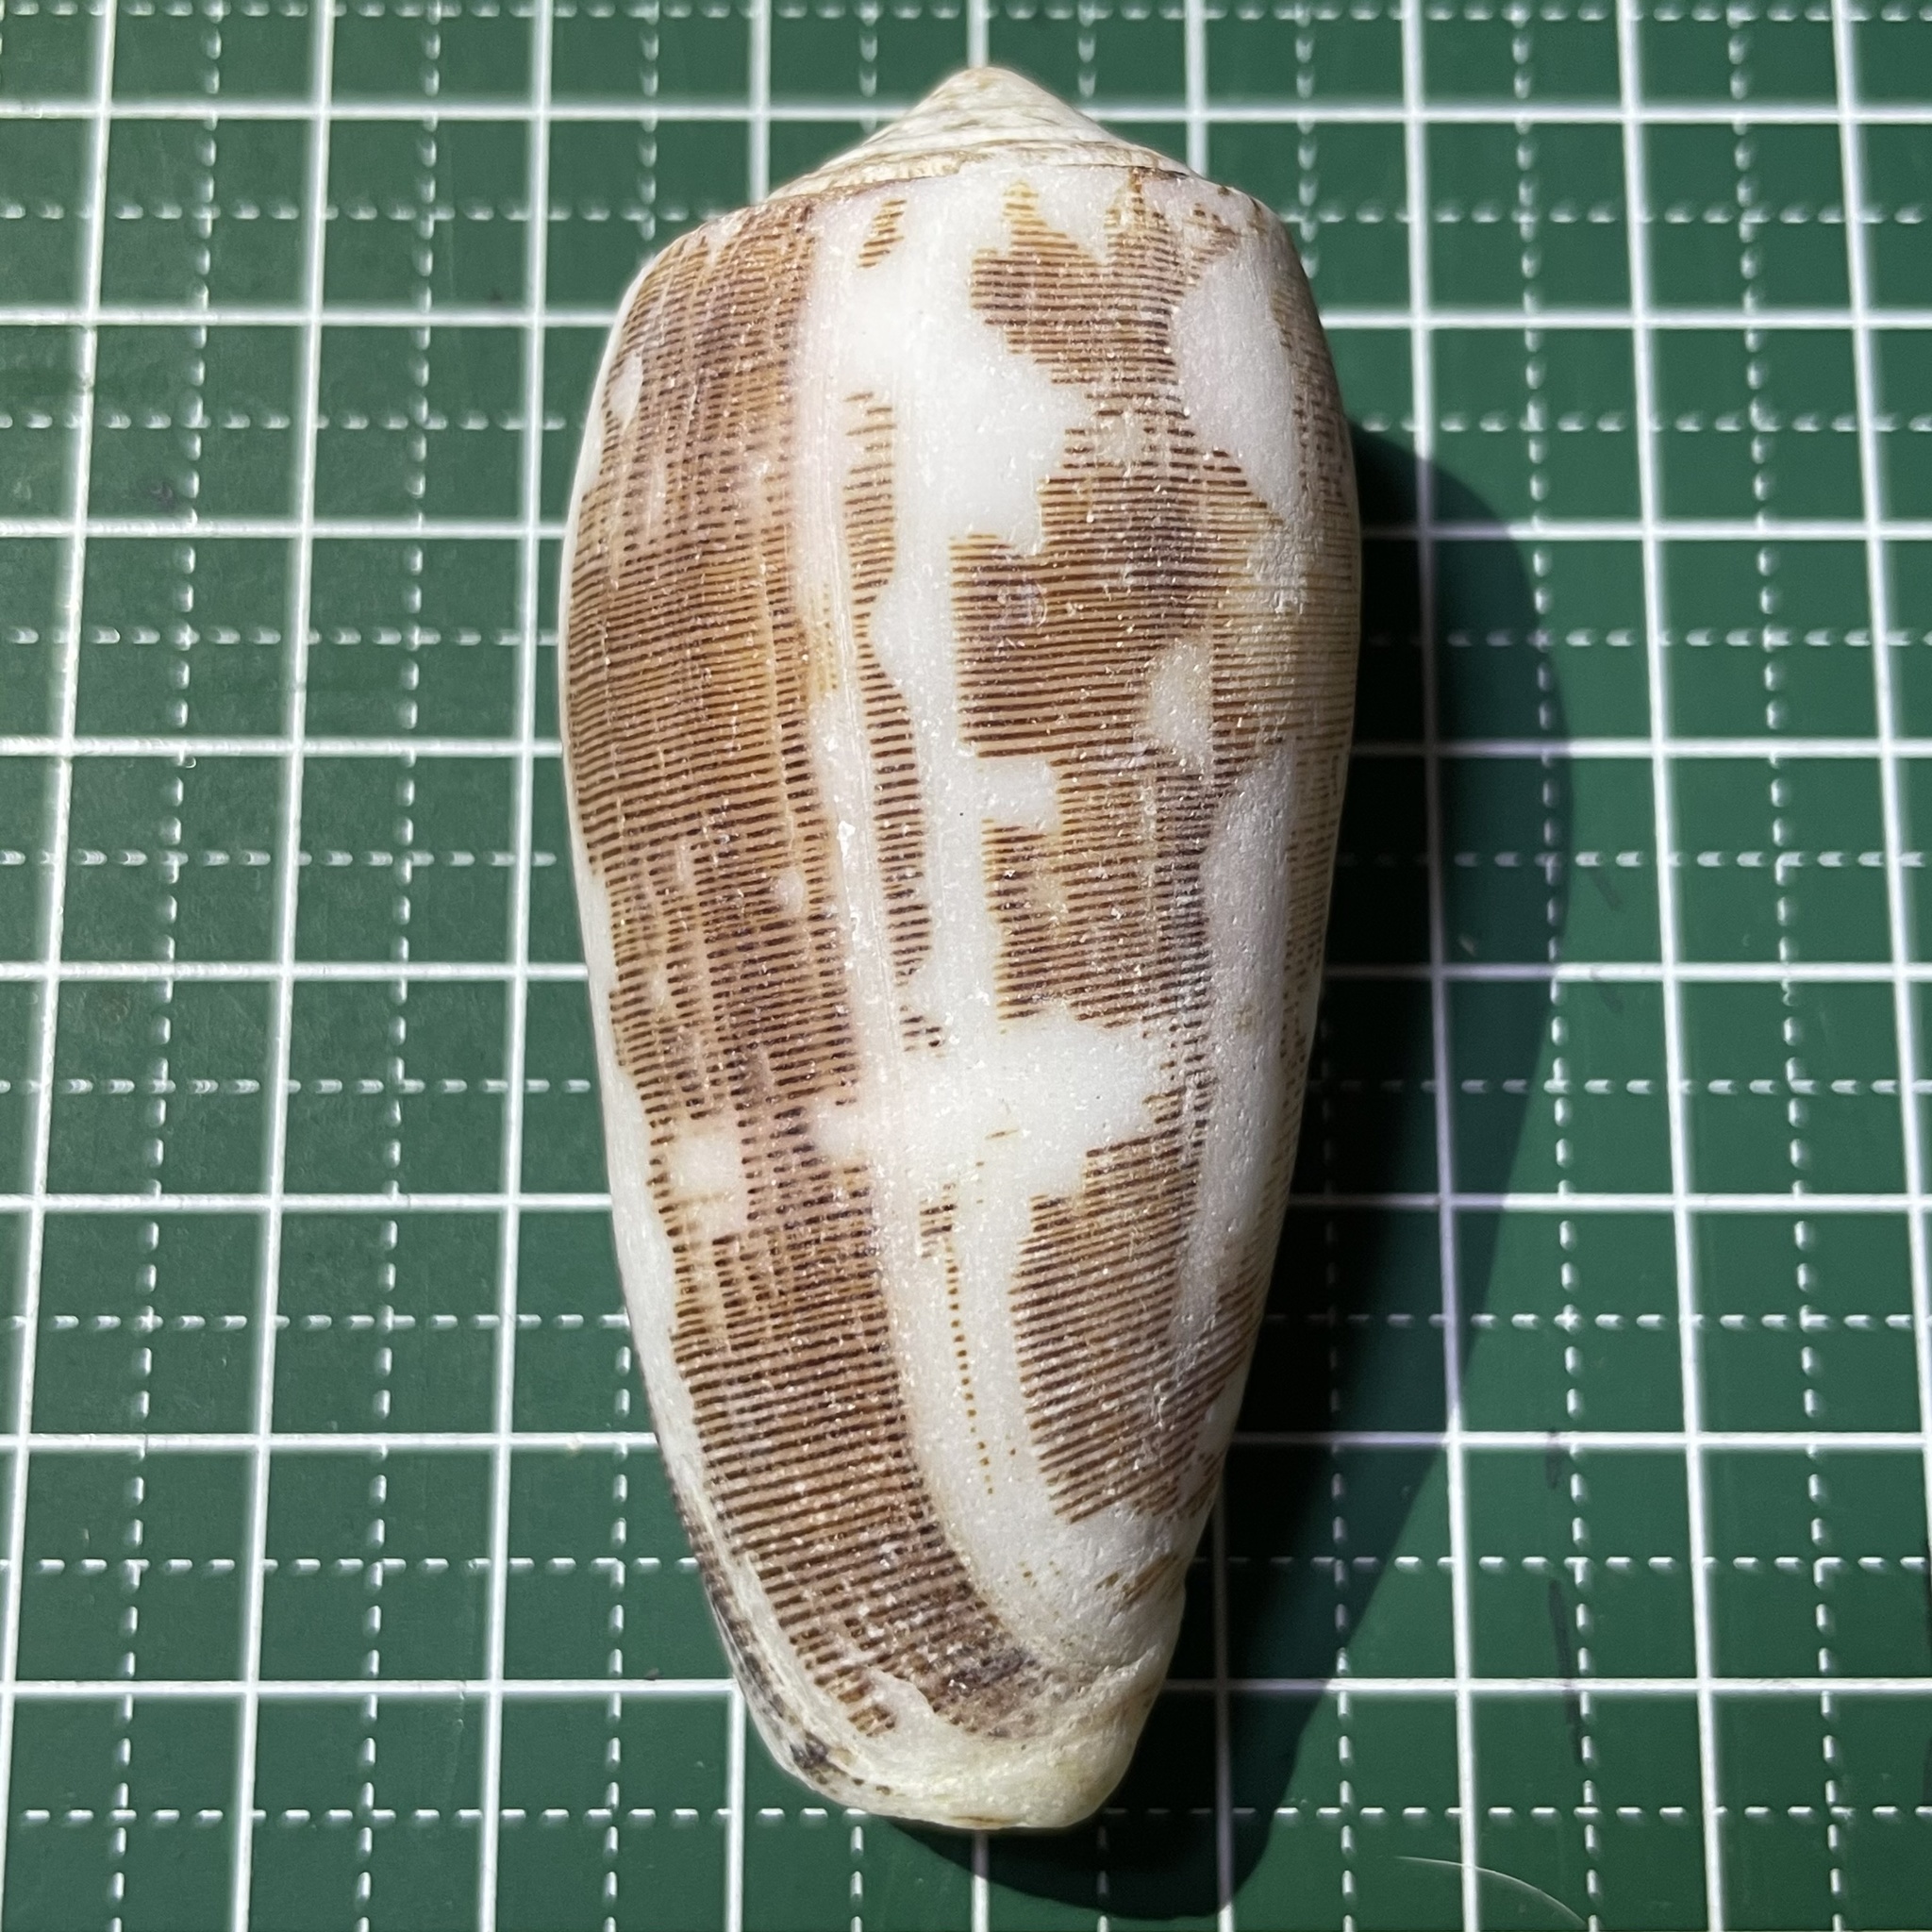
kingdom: Animalia
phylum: Mollusca
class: Gastropoda
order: Neogastropoda
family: Conidae
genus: Conus
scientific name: Conus striatus
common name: Striated cone
